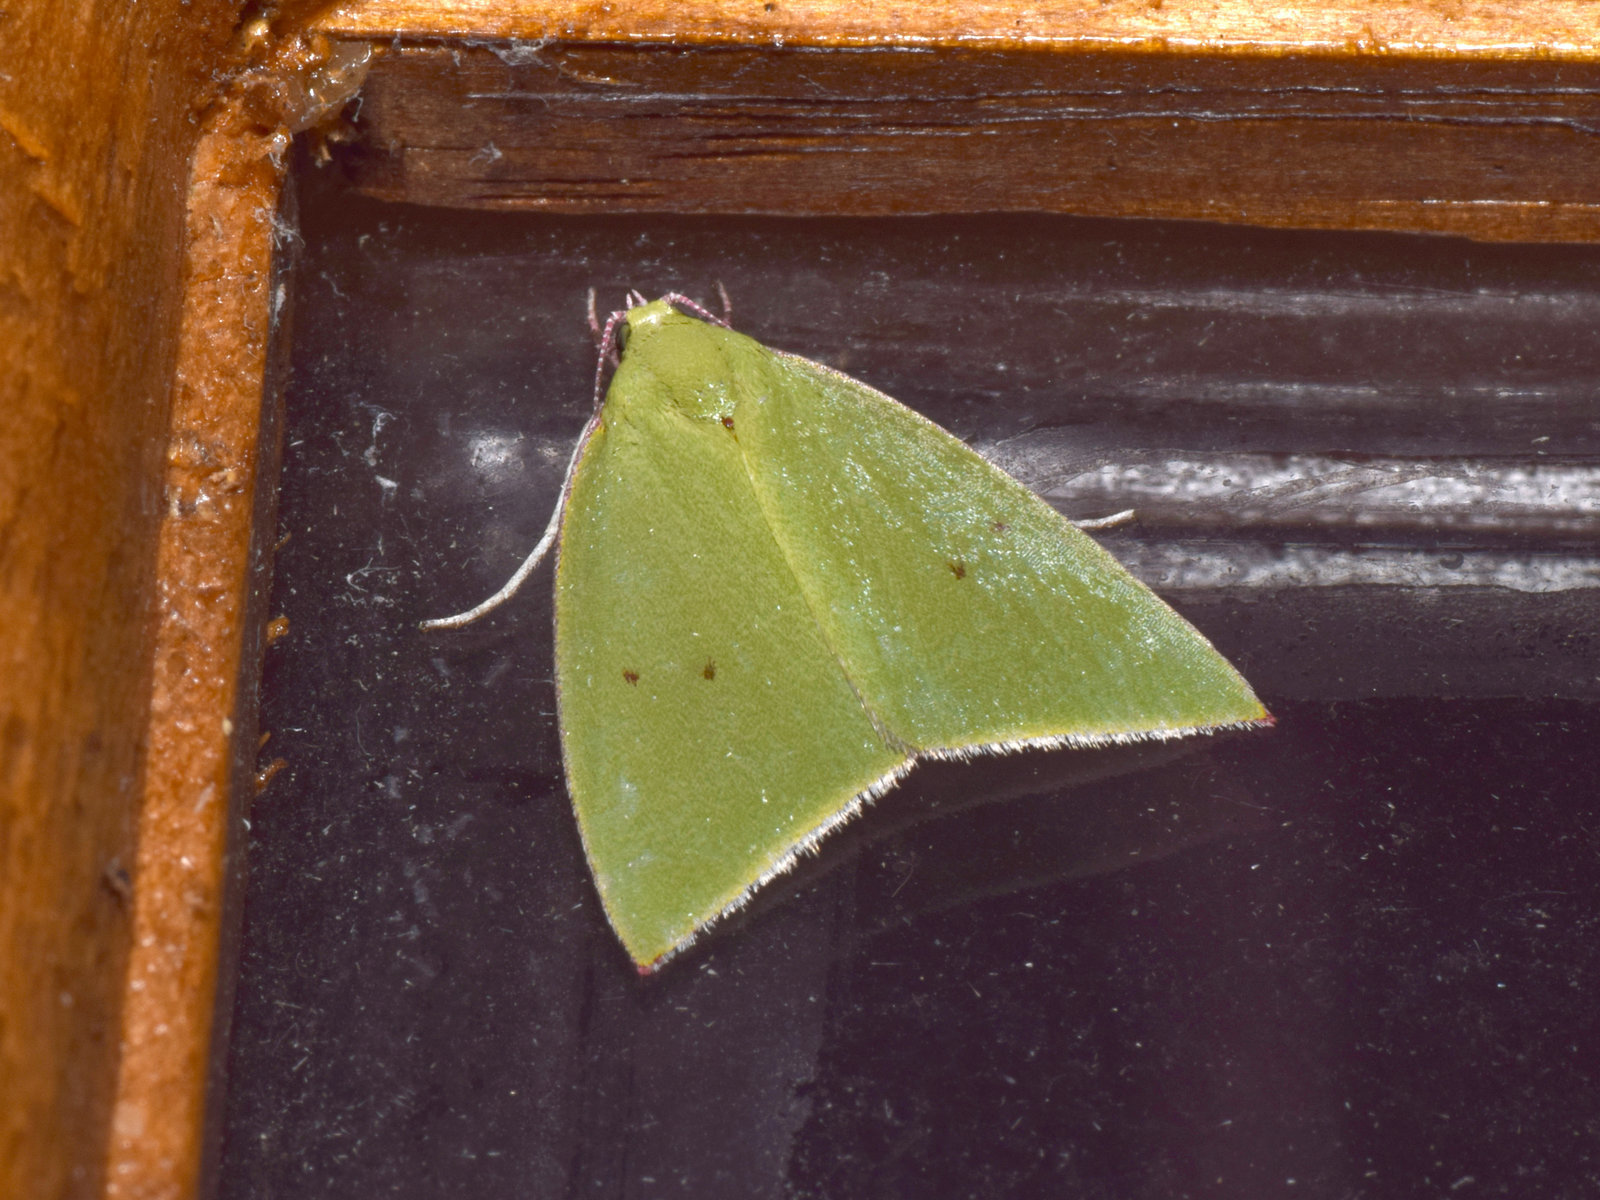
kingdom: Animalia
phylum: Arthropoda
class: Insecta
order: Lepidoptera
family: Nolidae
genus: Tyana
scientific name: Tyana falcata
